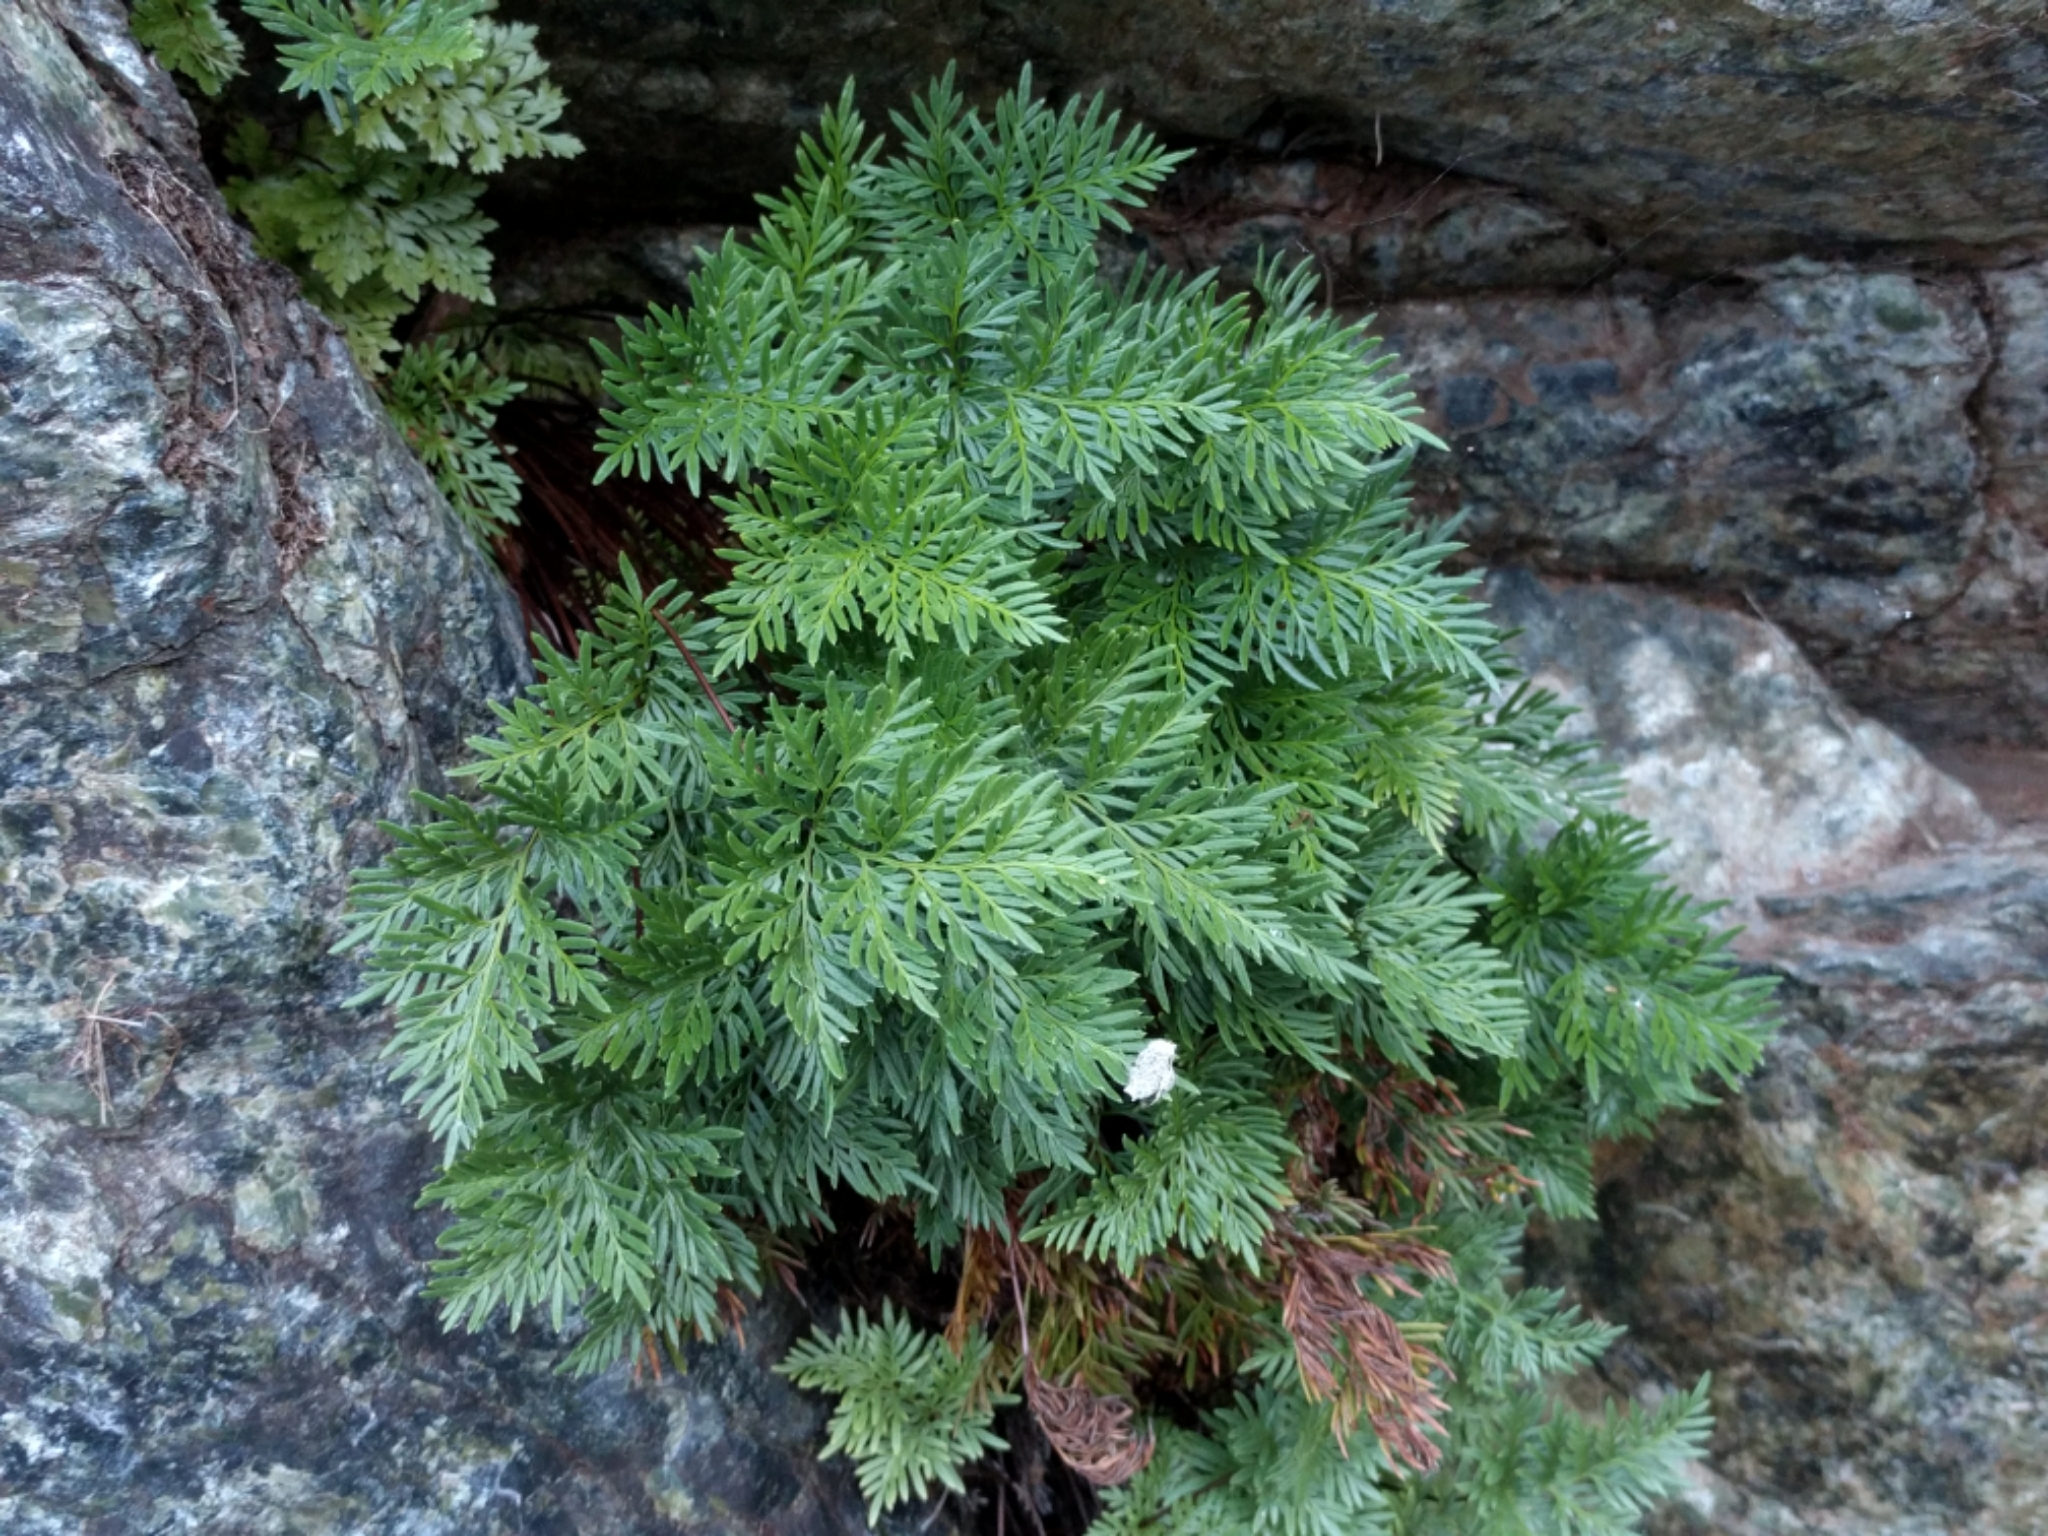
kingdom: Plantae
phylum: Tracheophyta
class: Polypodiopsida
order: Polypodiales
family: Pteridaceae
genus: Aspidotis
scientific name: Aspidotis densa
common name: Indian's dream
